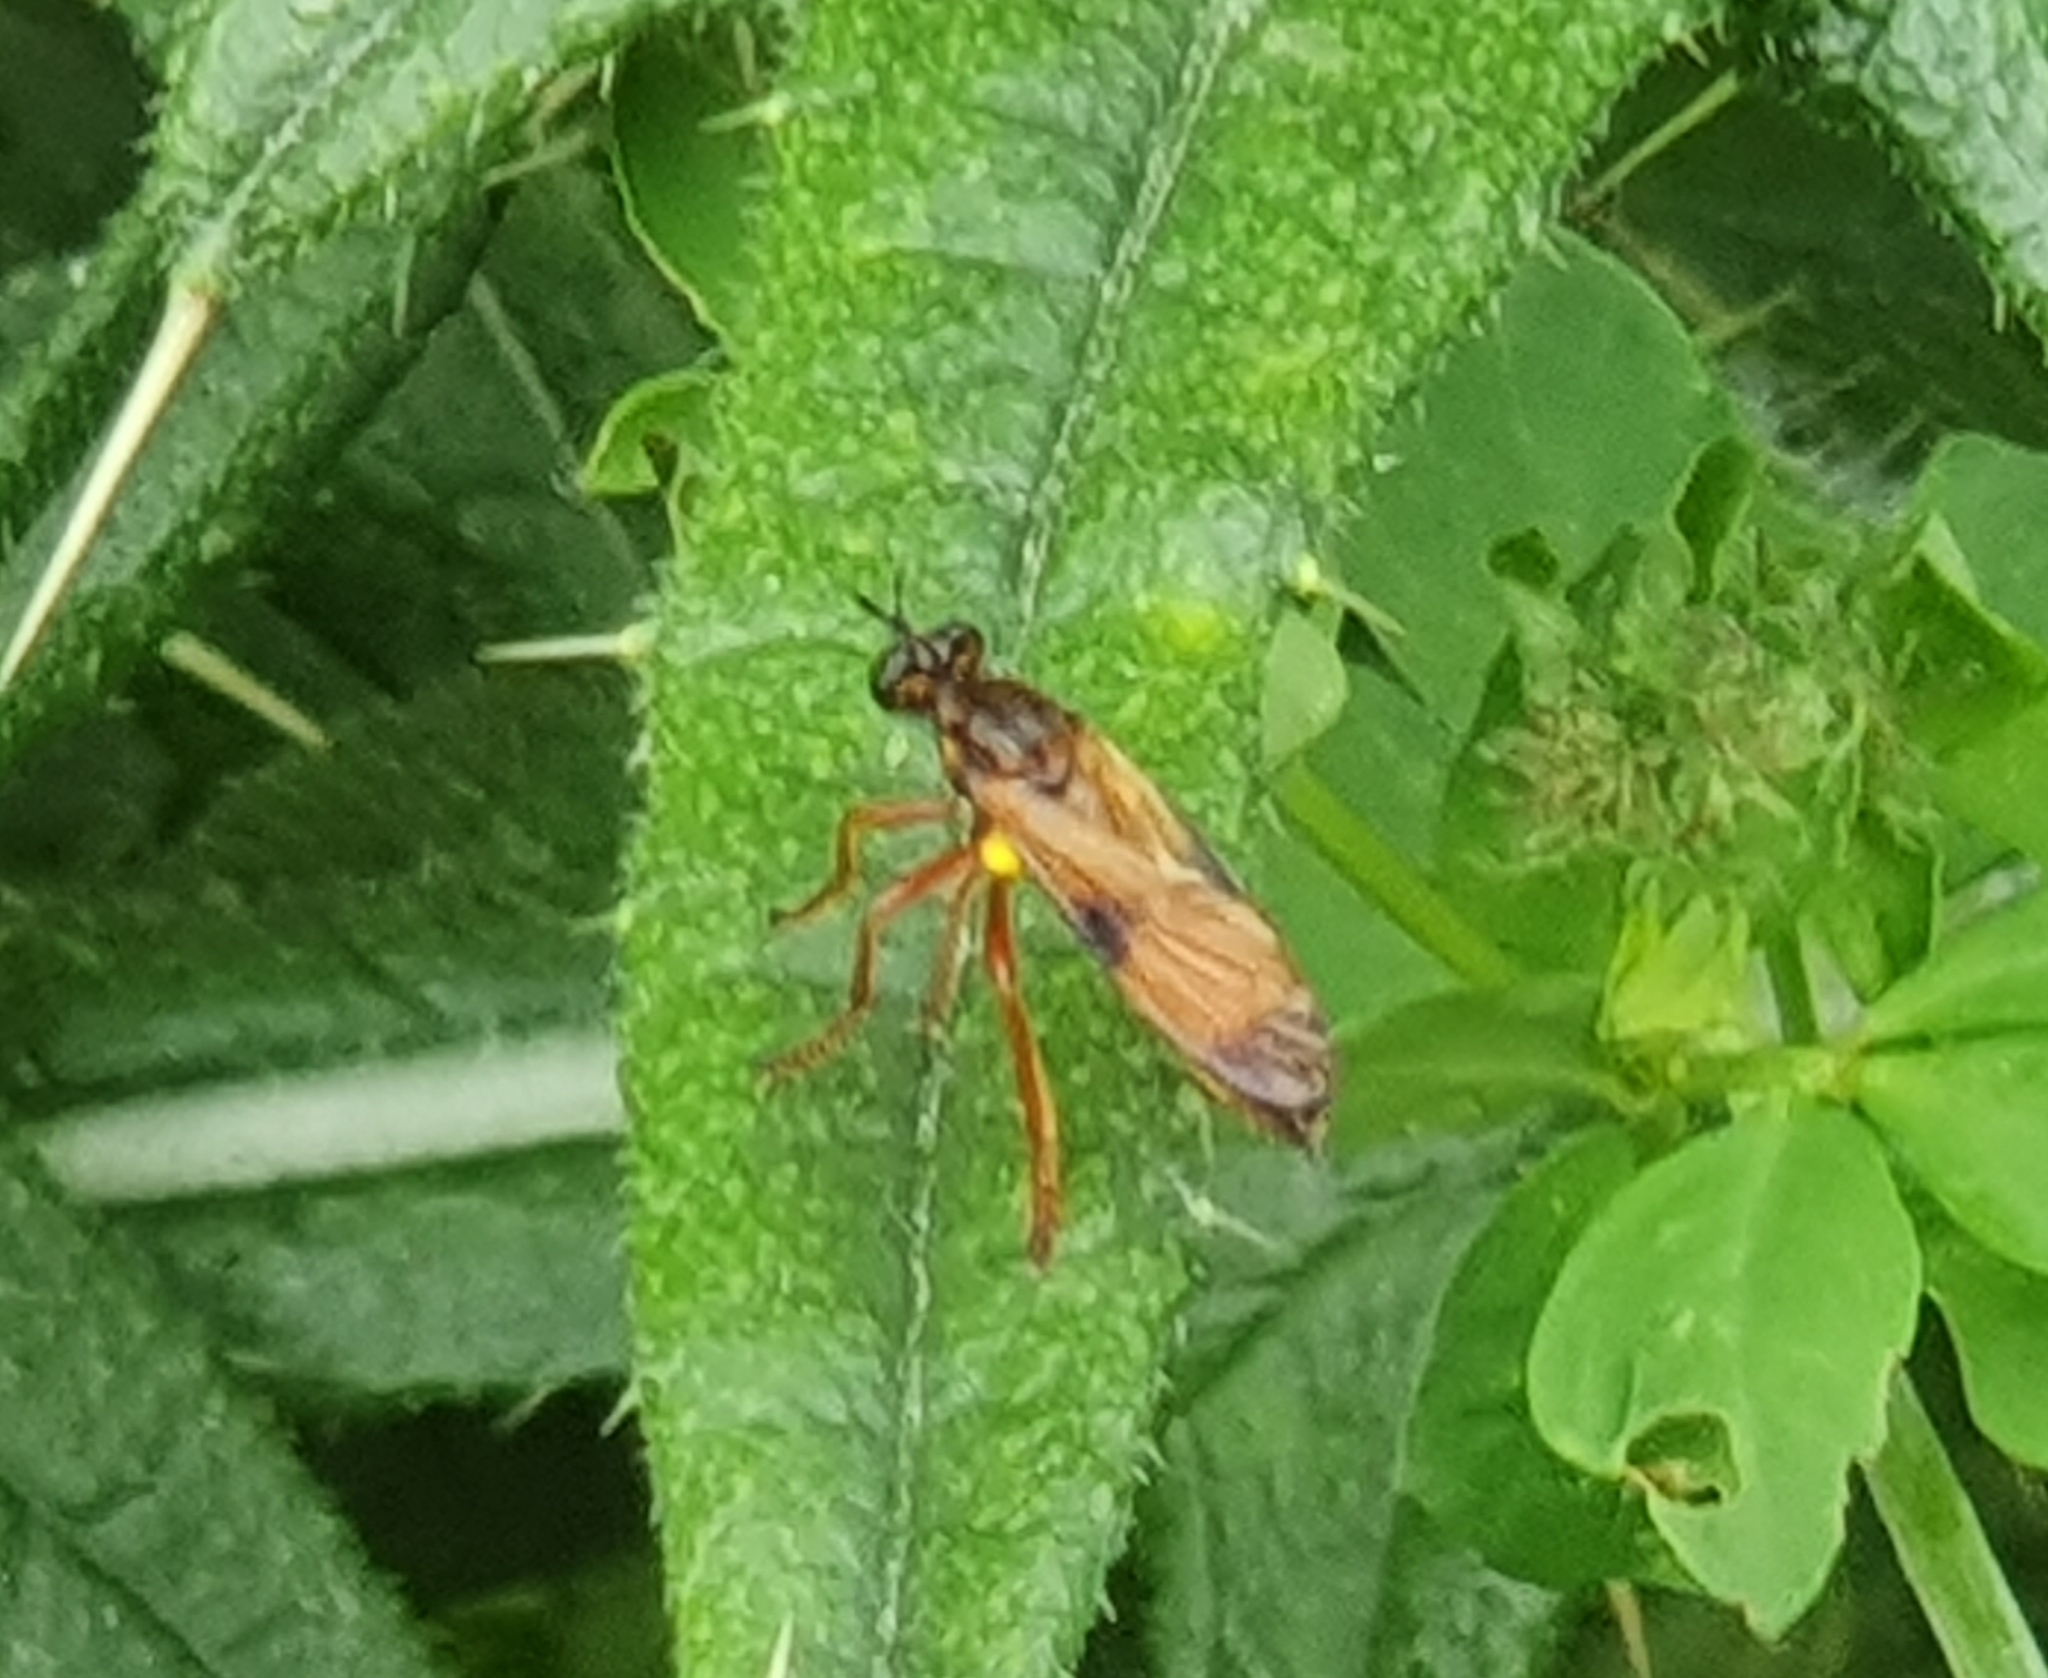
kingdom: Animalia
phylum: Arthropoda
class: Insecta
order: Diptera
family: Asilidae
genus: Saropogon
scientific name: Saropogon extenuatus
